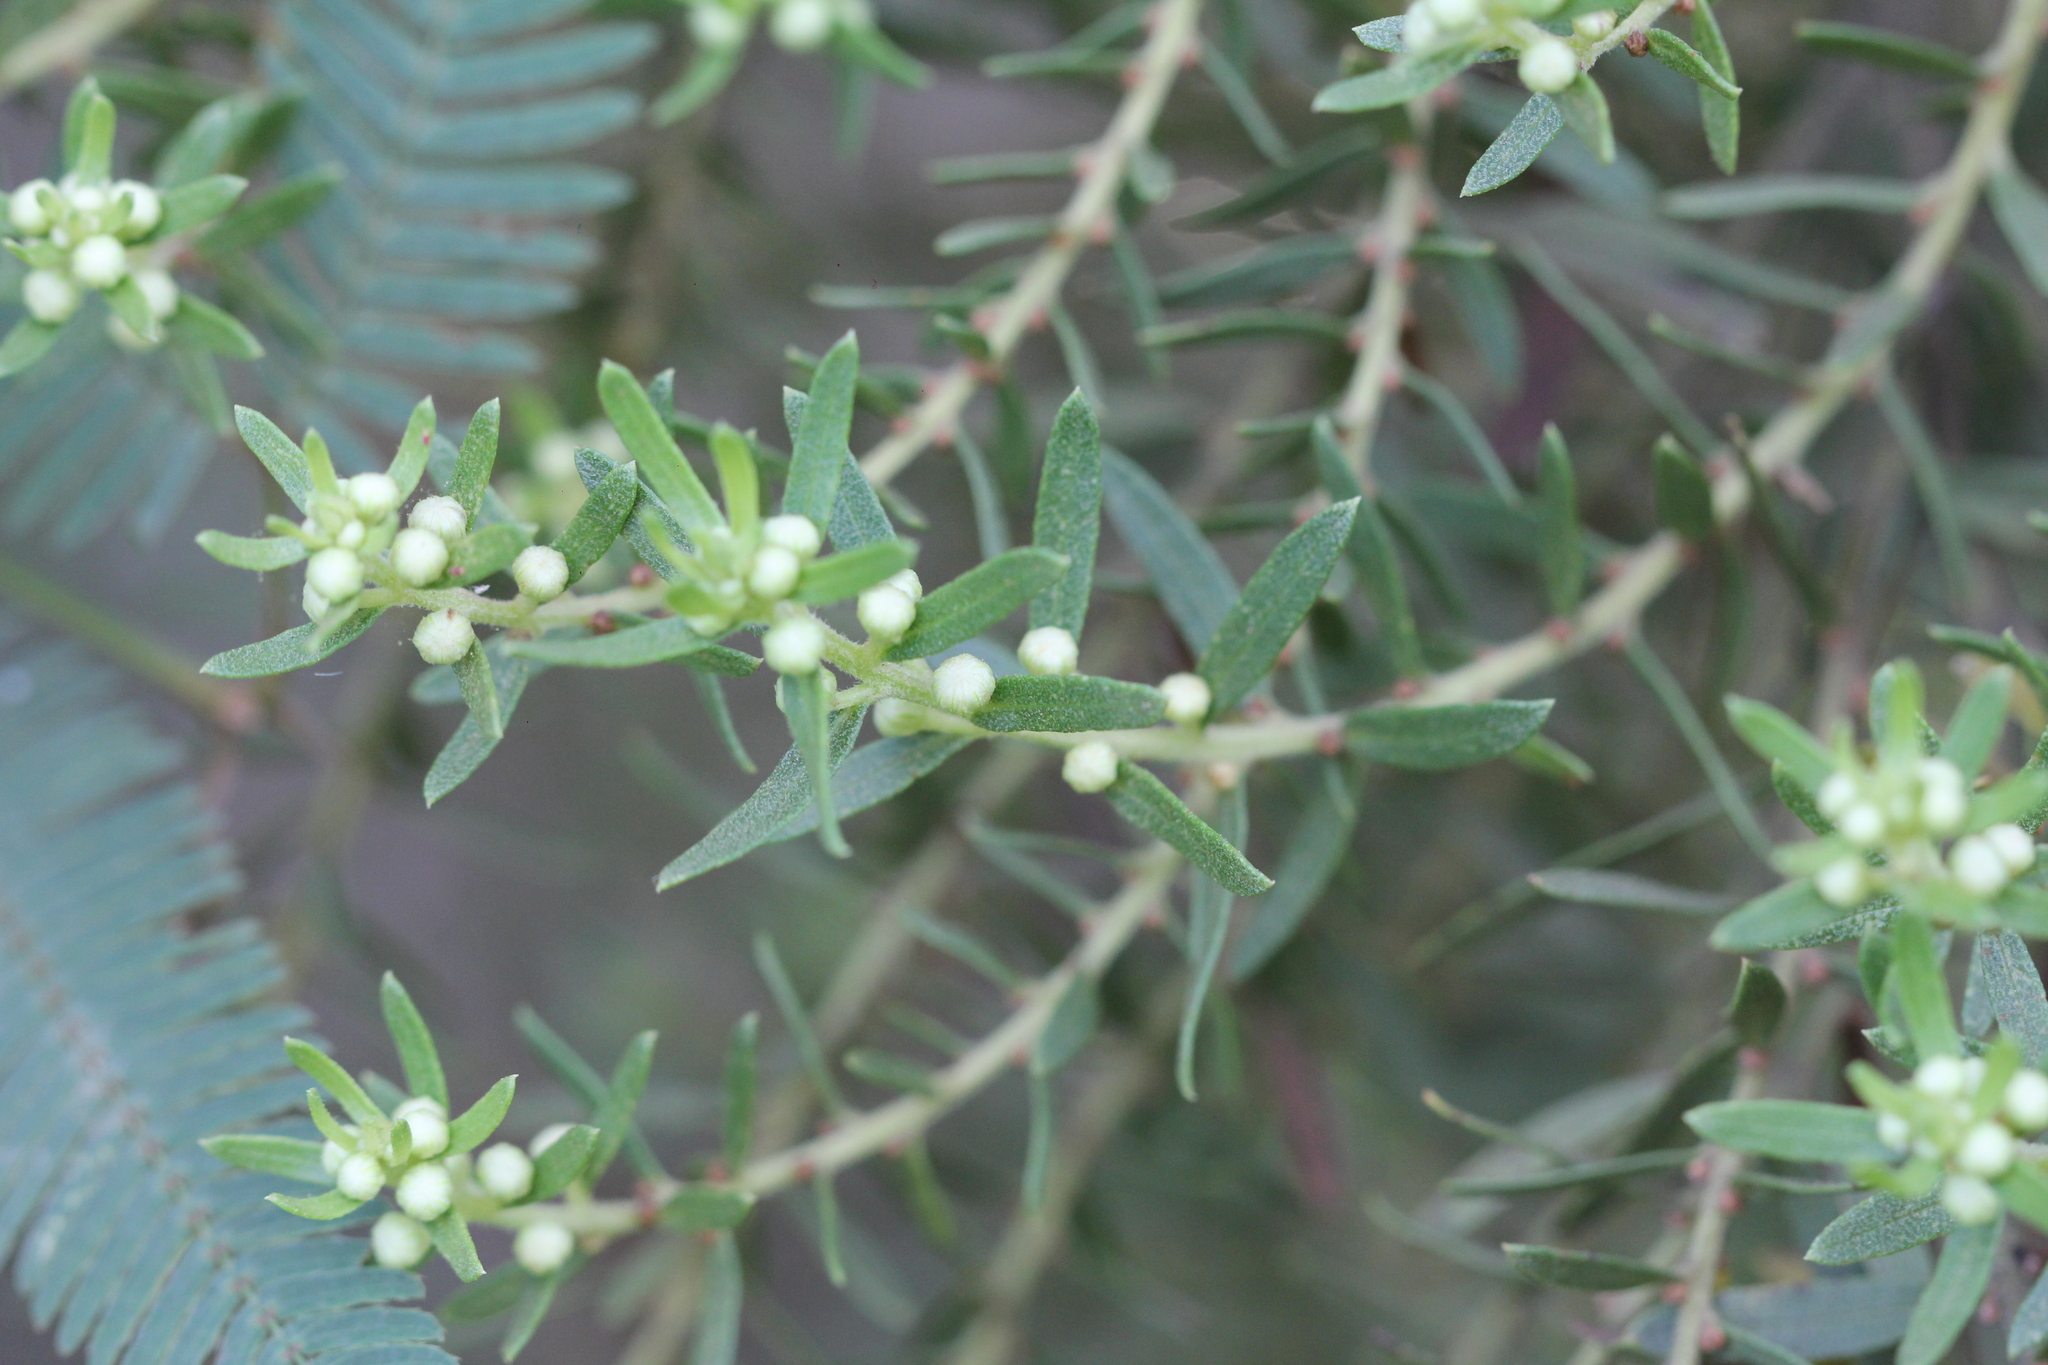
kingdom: Plantae
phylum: Tracheophyta
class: Magnoliopsida
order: Asterales
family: Asteraceae
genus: Baccharis
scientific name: Baccharis dracunculifolia
